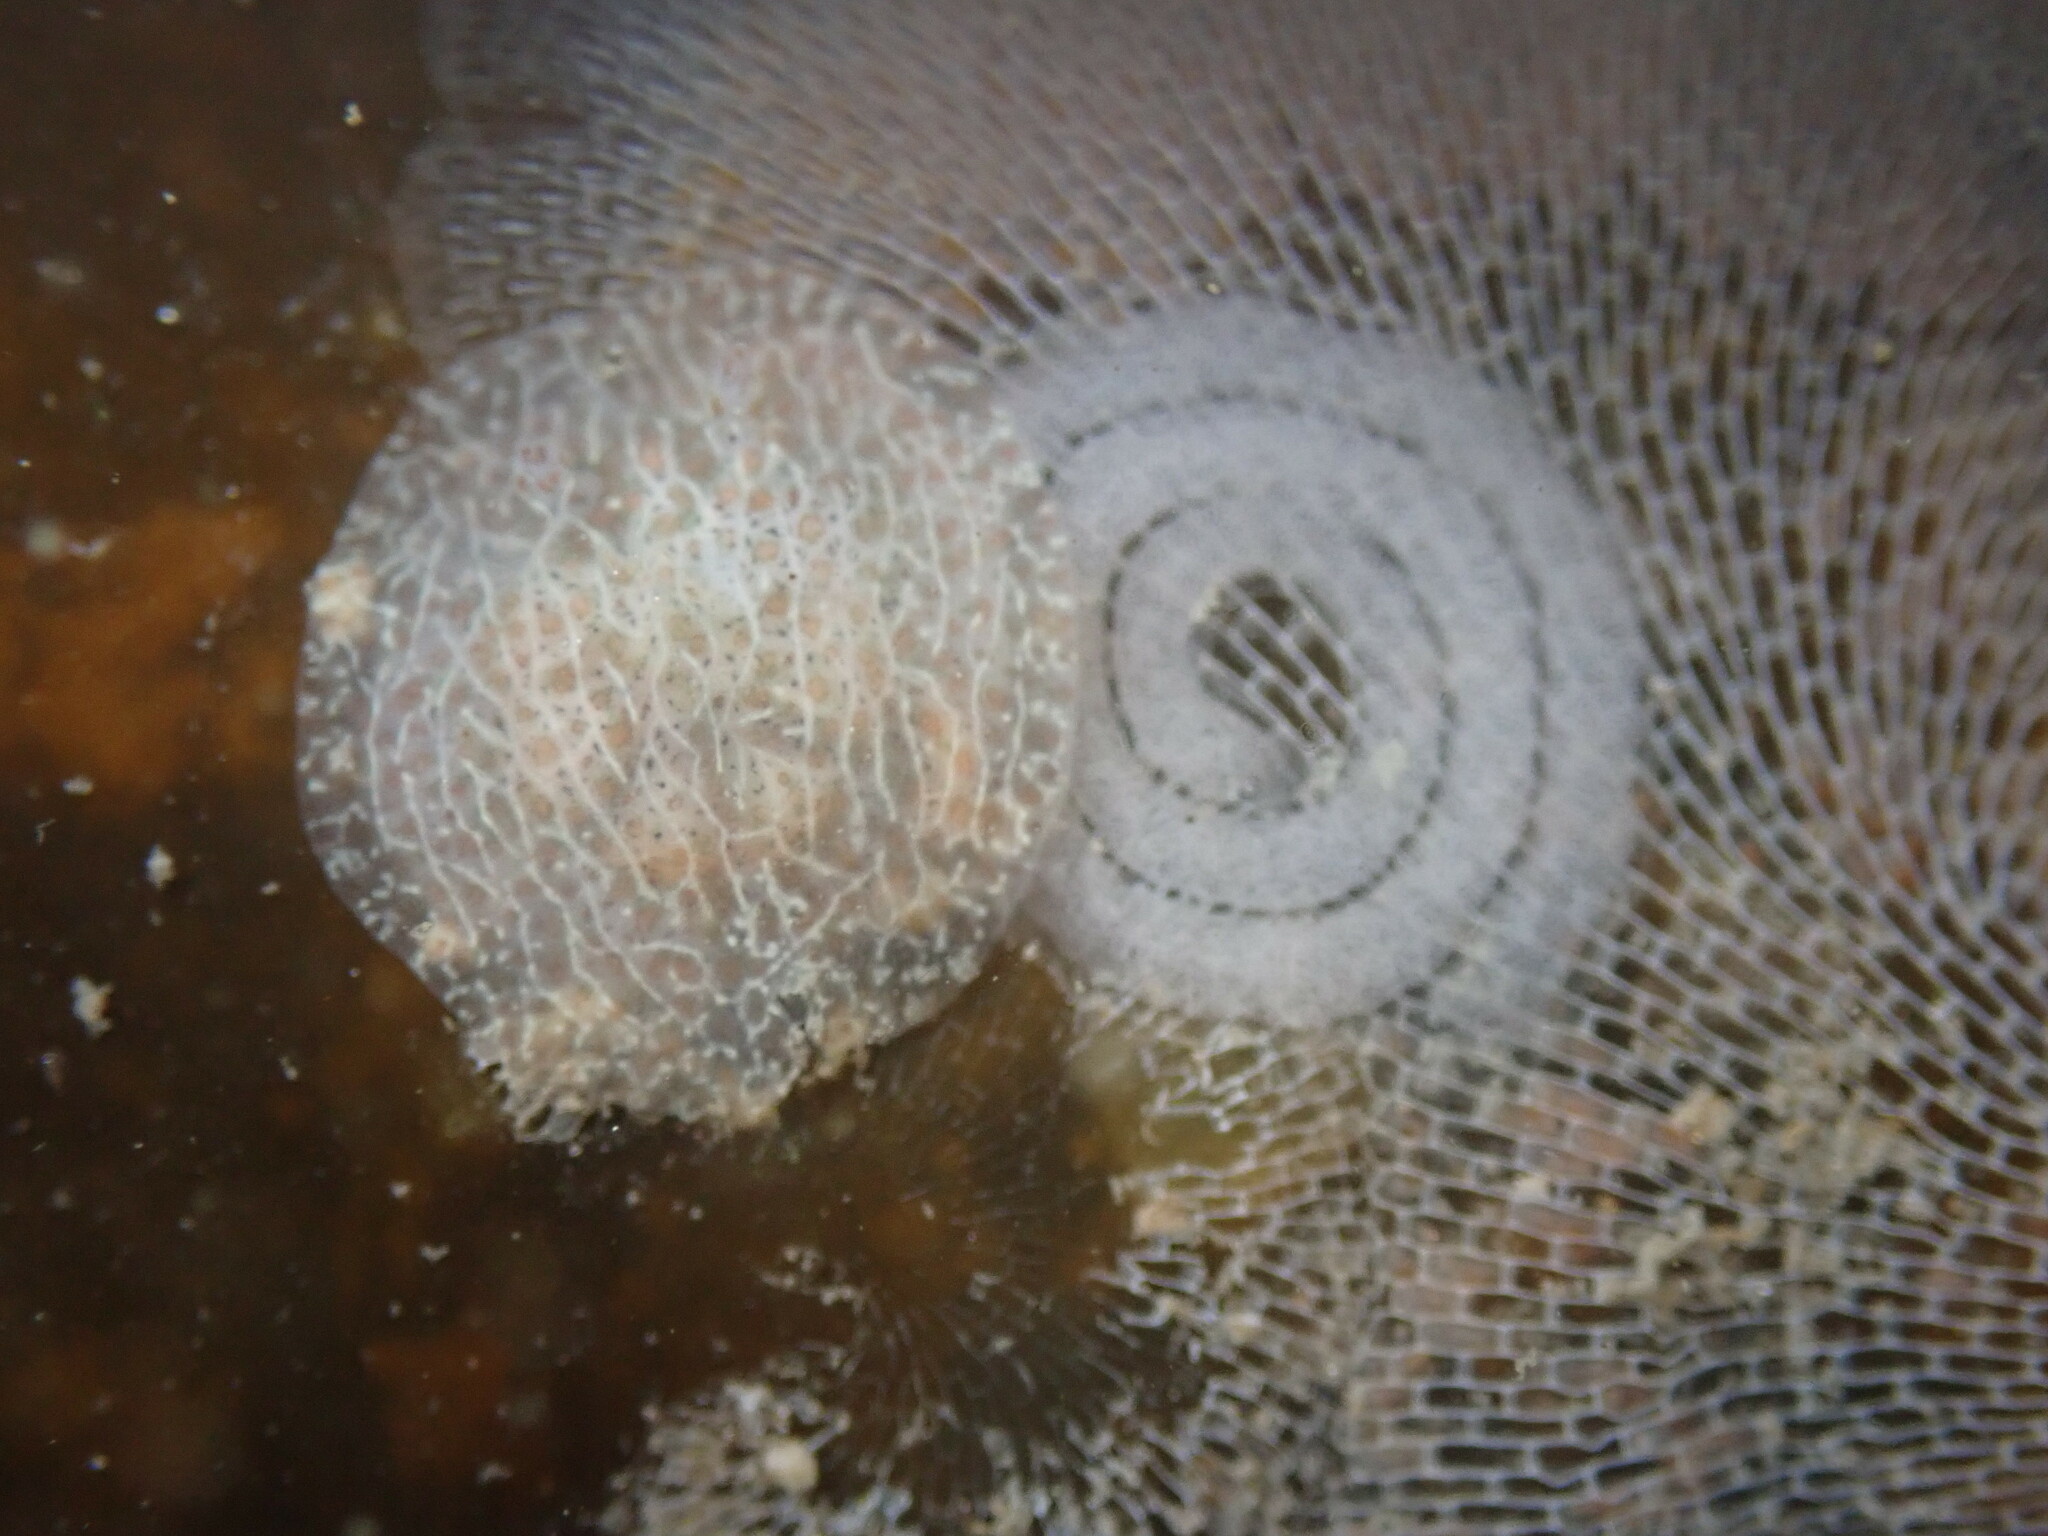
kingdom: Animalia
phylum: Mollusca
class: Gastropoda
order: Nudibranchia
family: Corambidae
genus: Corambe
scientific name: Corambe pacifica
